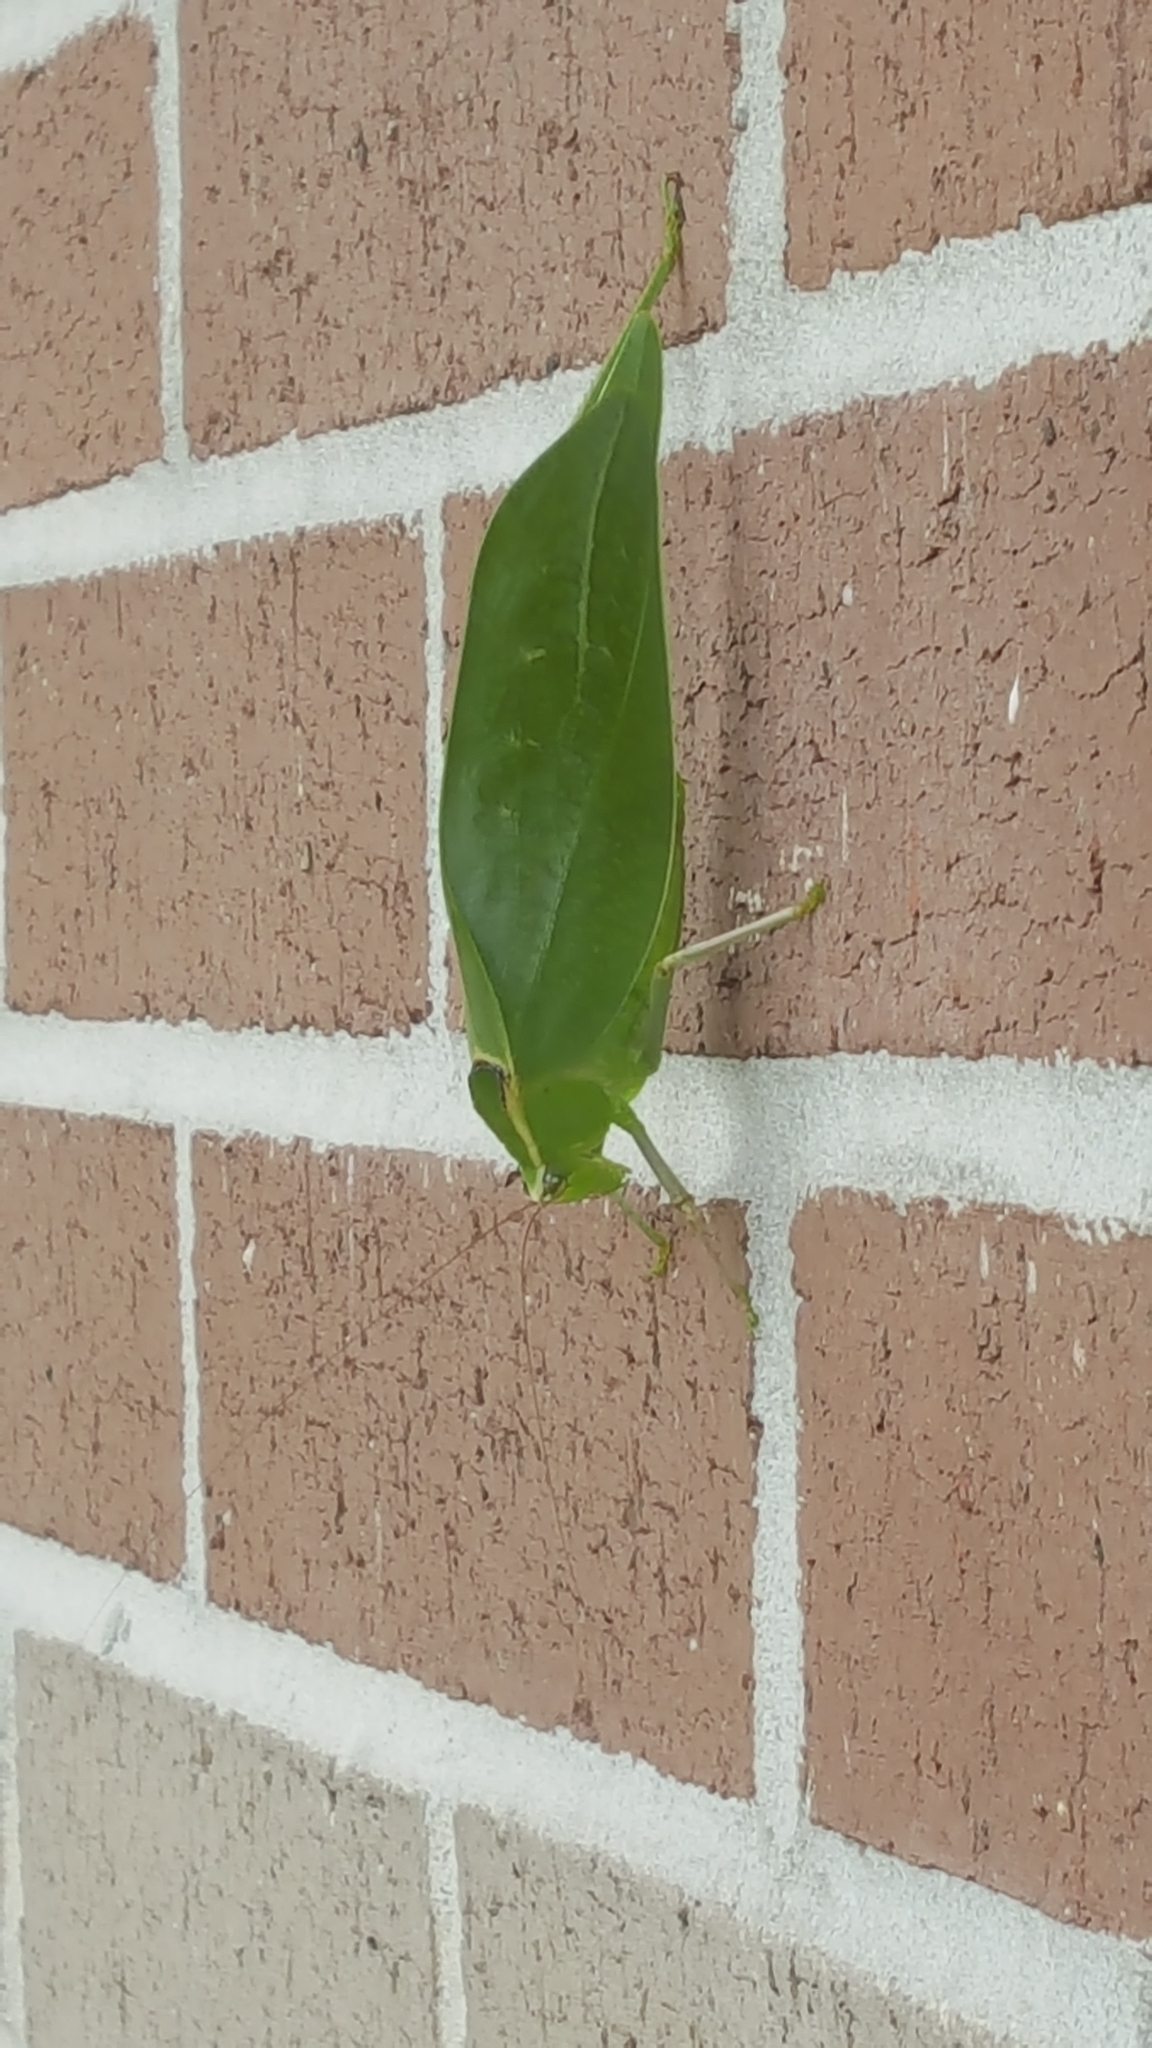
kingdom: Animalia
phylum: Arthropoda
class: Insecta
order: Orthoptera
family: Tettigoniidae
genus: Stilpnochlora
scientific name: Stilpnochlora couloniana
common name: Giant katydid
